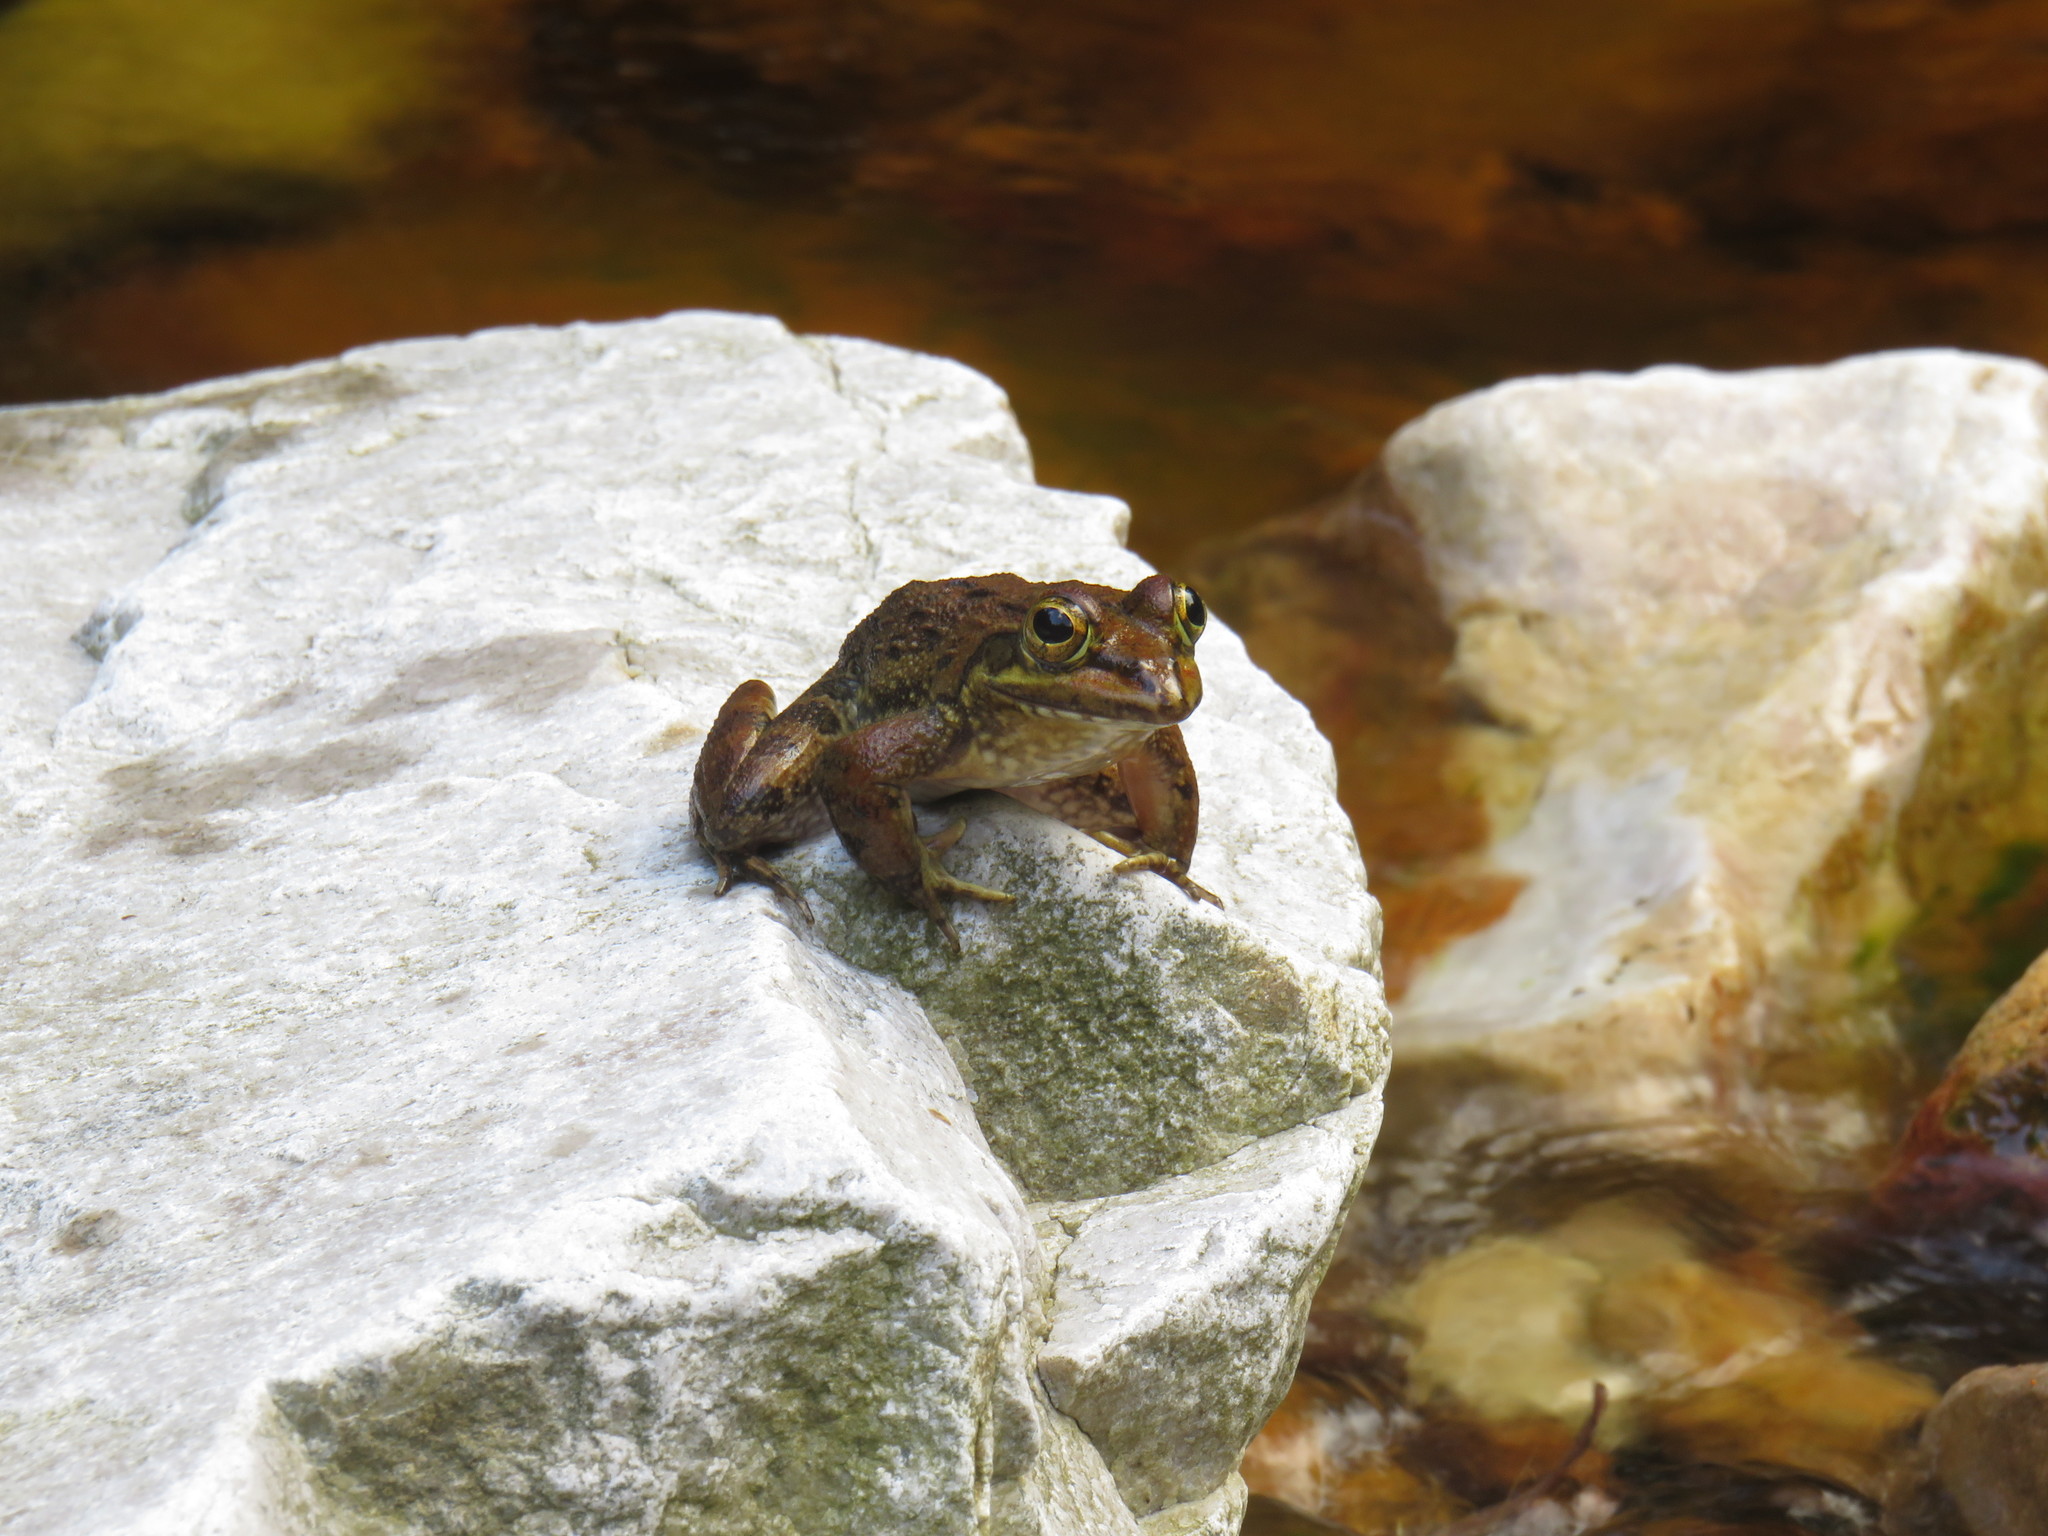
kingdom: Animalia
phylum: Chordata
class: Amphibia
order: Anura
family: Pyxicephalidae
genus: Amietia
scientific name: Amietia fuscigula
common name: Cape rana
